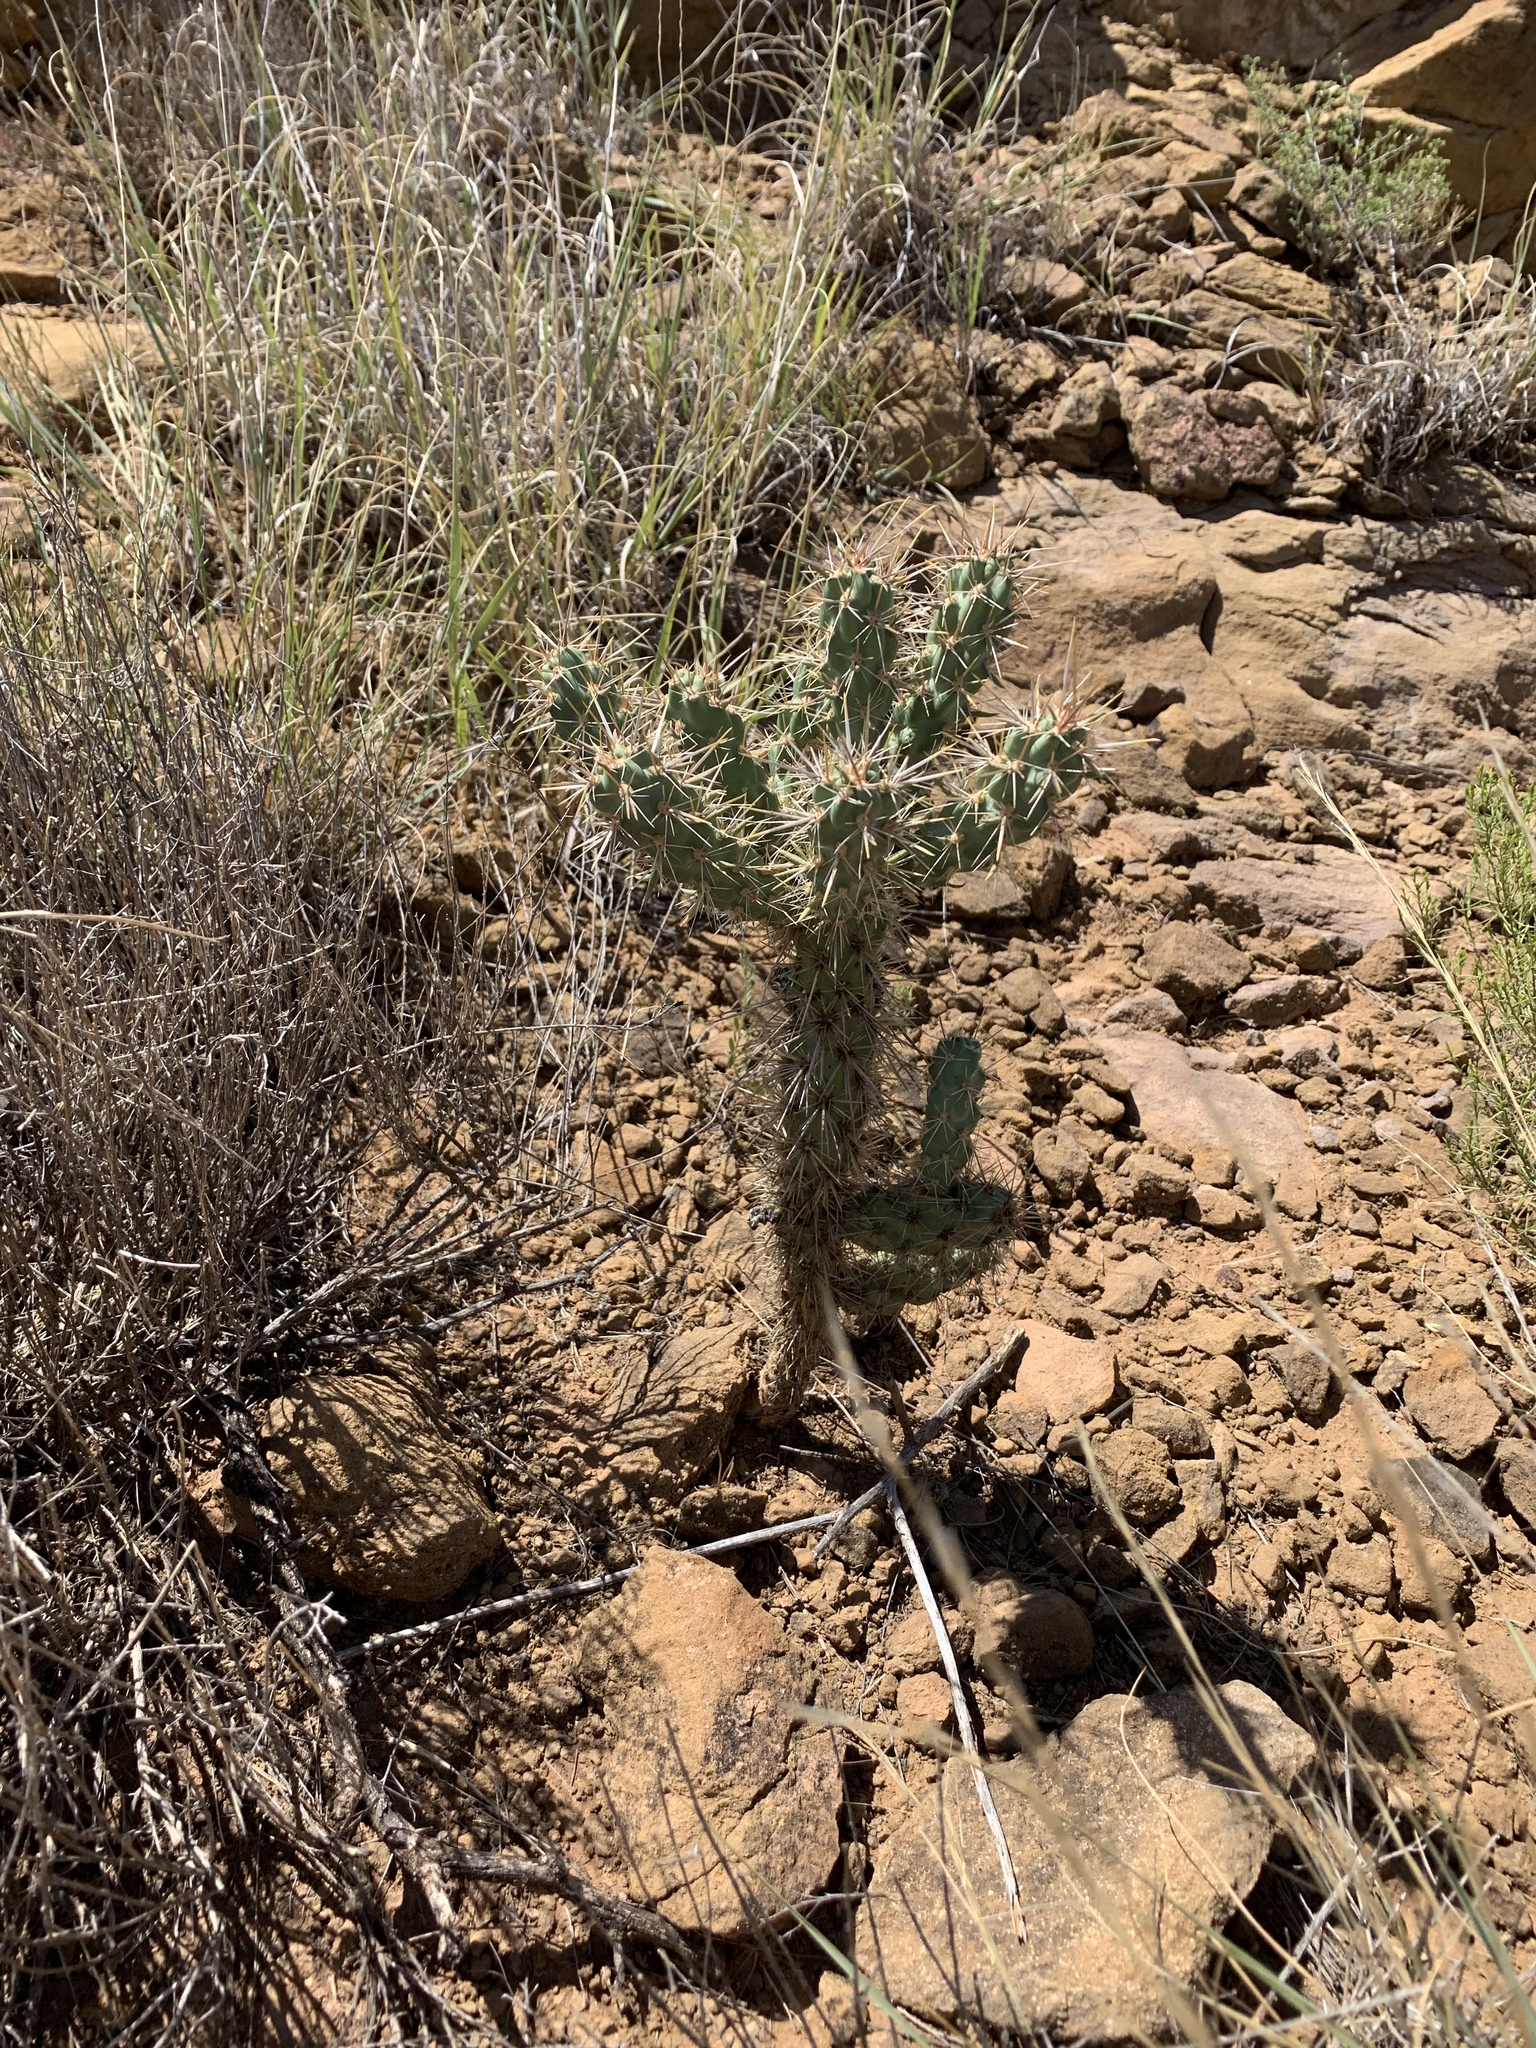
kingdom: Plantae
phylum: Tracheophyta
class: Magnoliopsida
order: Caryophyllales
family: Cactaceae
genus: Cylindropuntia
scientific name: Cylindropuntia imbricata
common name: Candelabrum cactus
